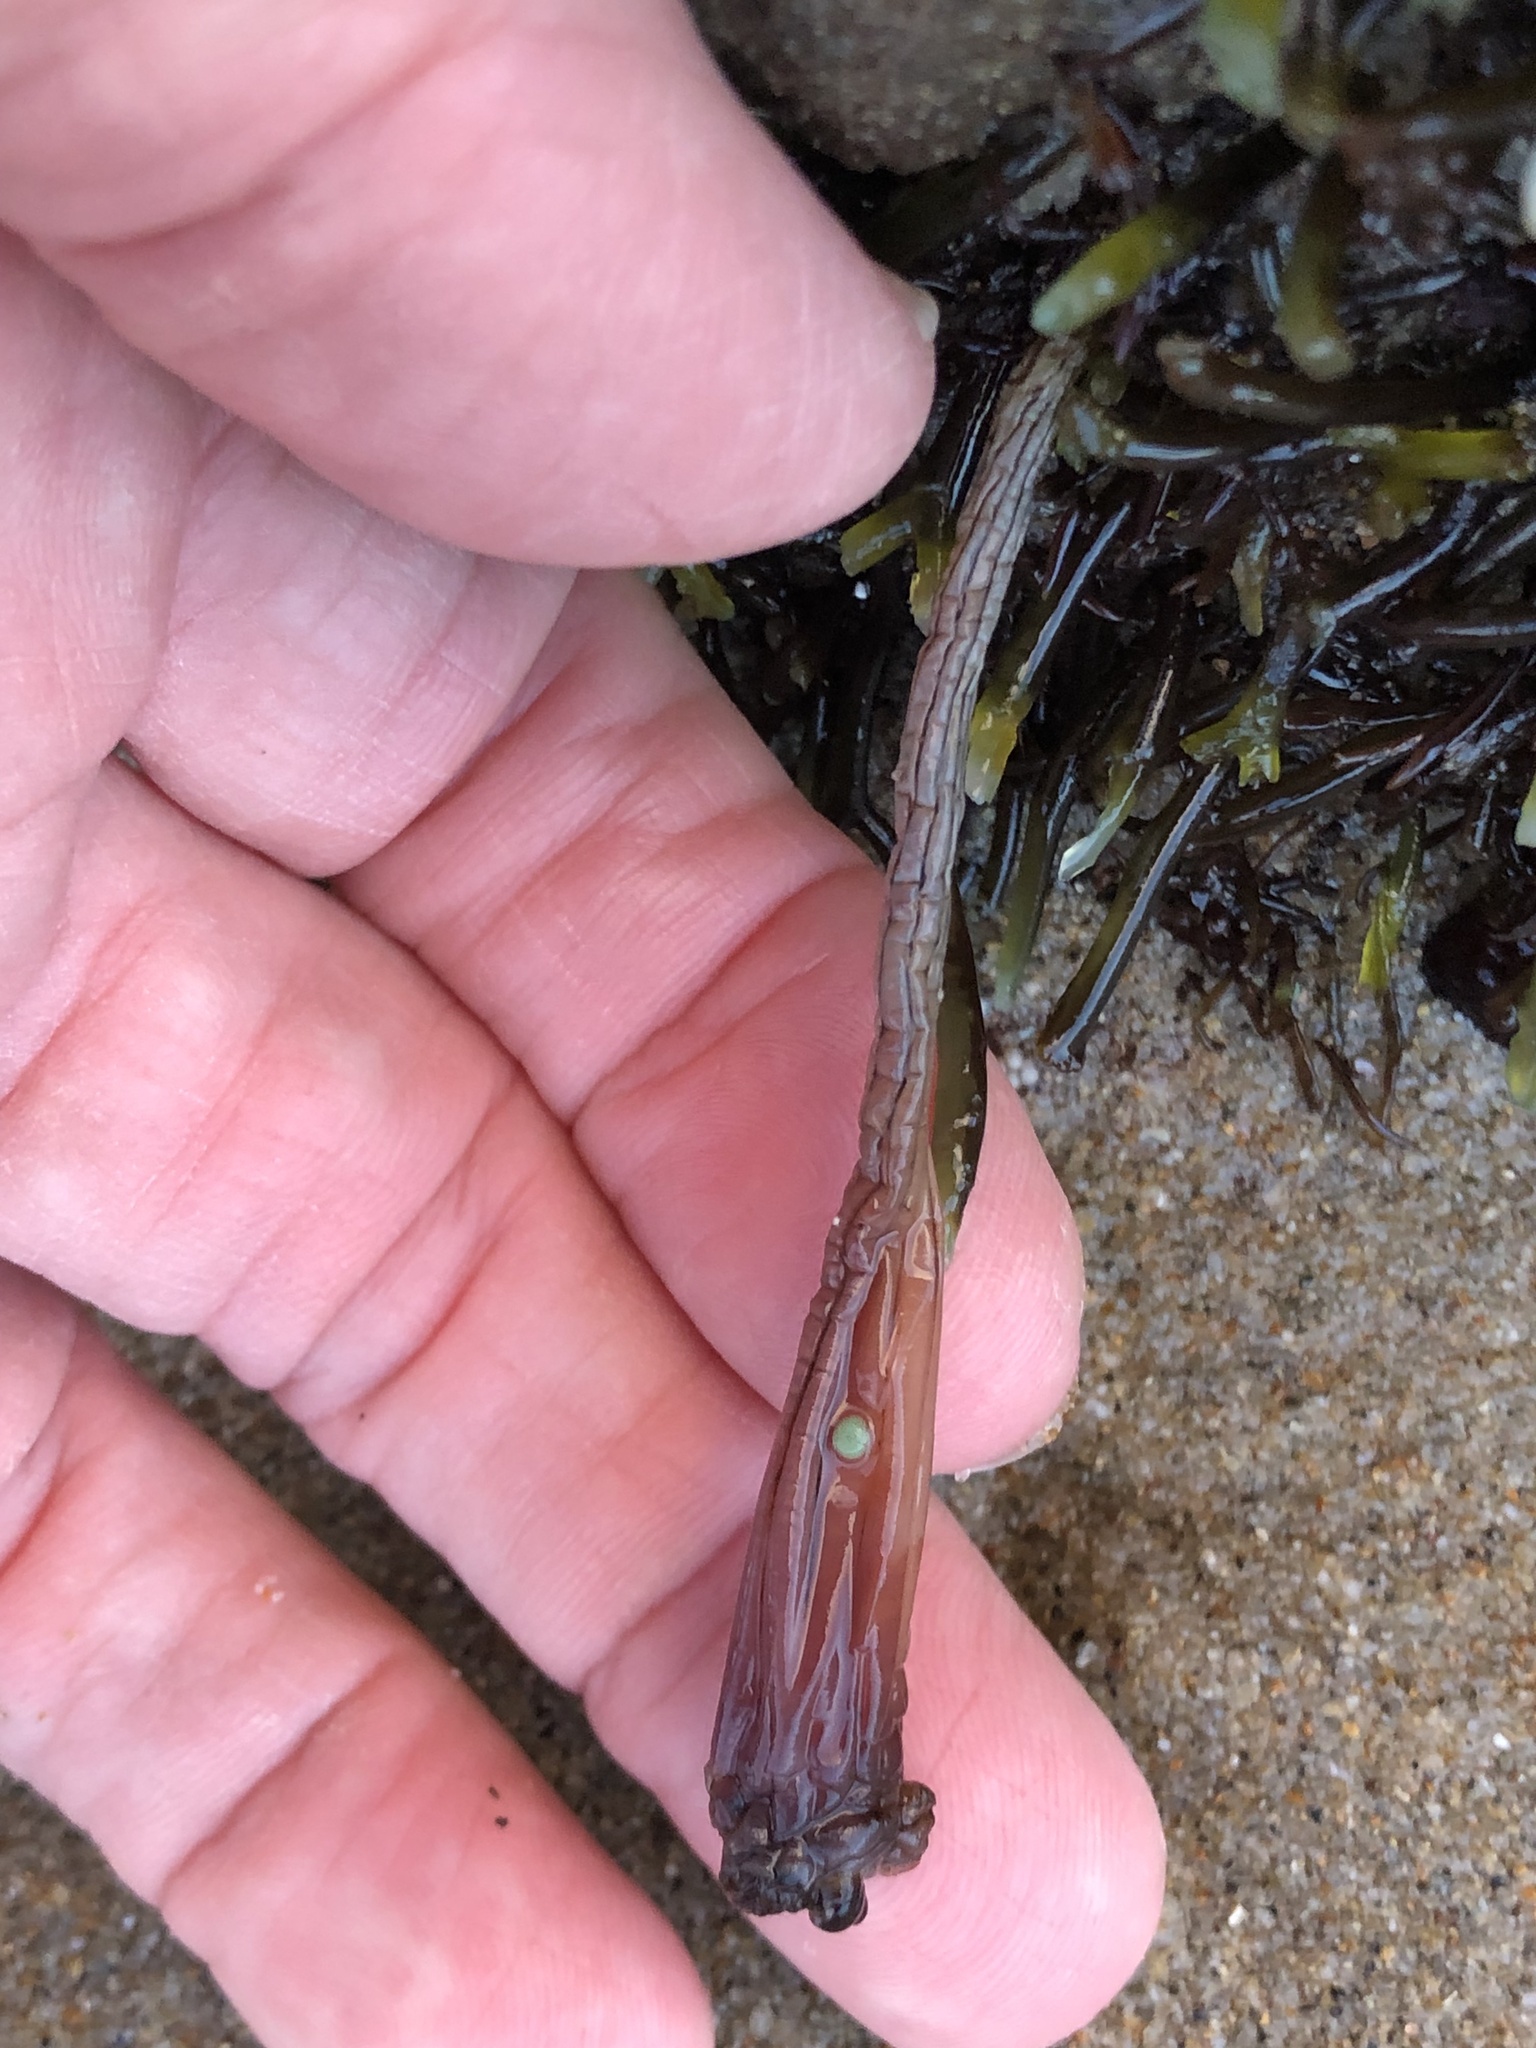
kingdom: Animalia
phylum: Chordata
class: Ascidiacea
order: Stolidobranchia
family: Styelidae
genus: Styela
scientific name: Styela montereyensis
